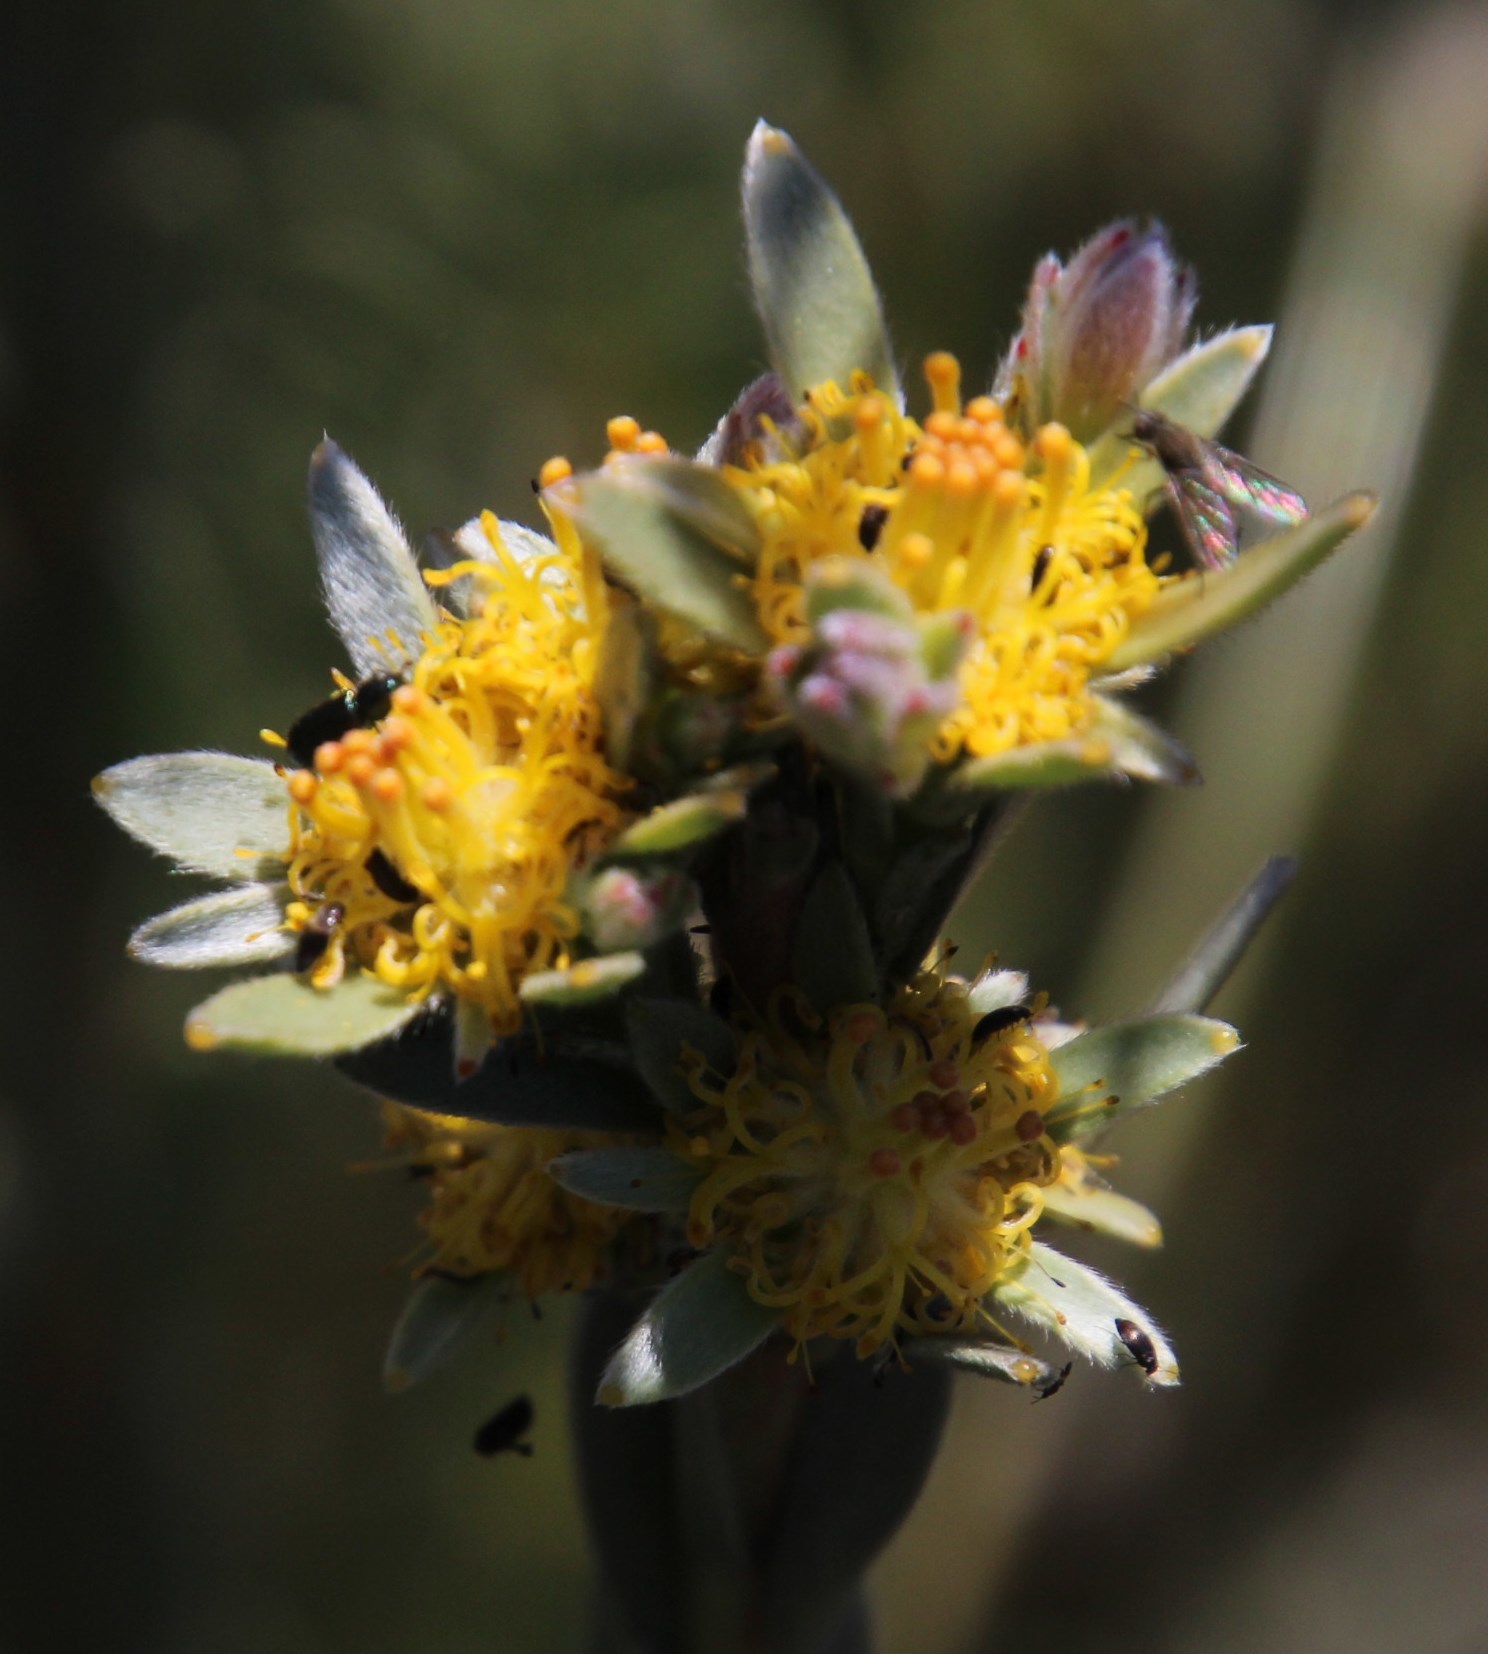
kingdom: Plantae
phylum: Tracheophyta
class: Magnoliopsida
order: Proteales
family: Proteaceae
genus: Leucadendron
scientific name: Leucadendron verticillatum
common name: Klapmuts conebush
